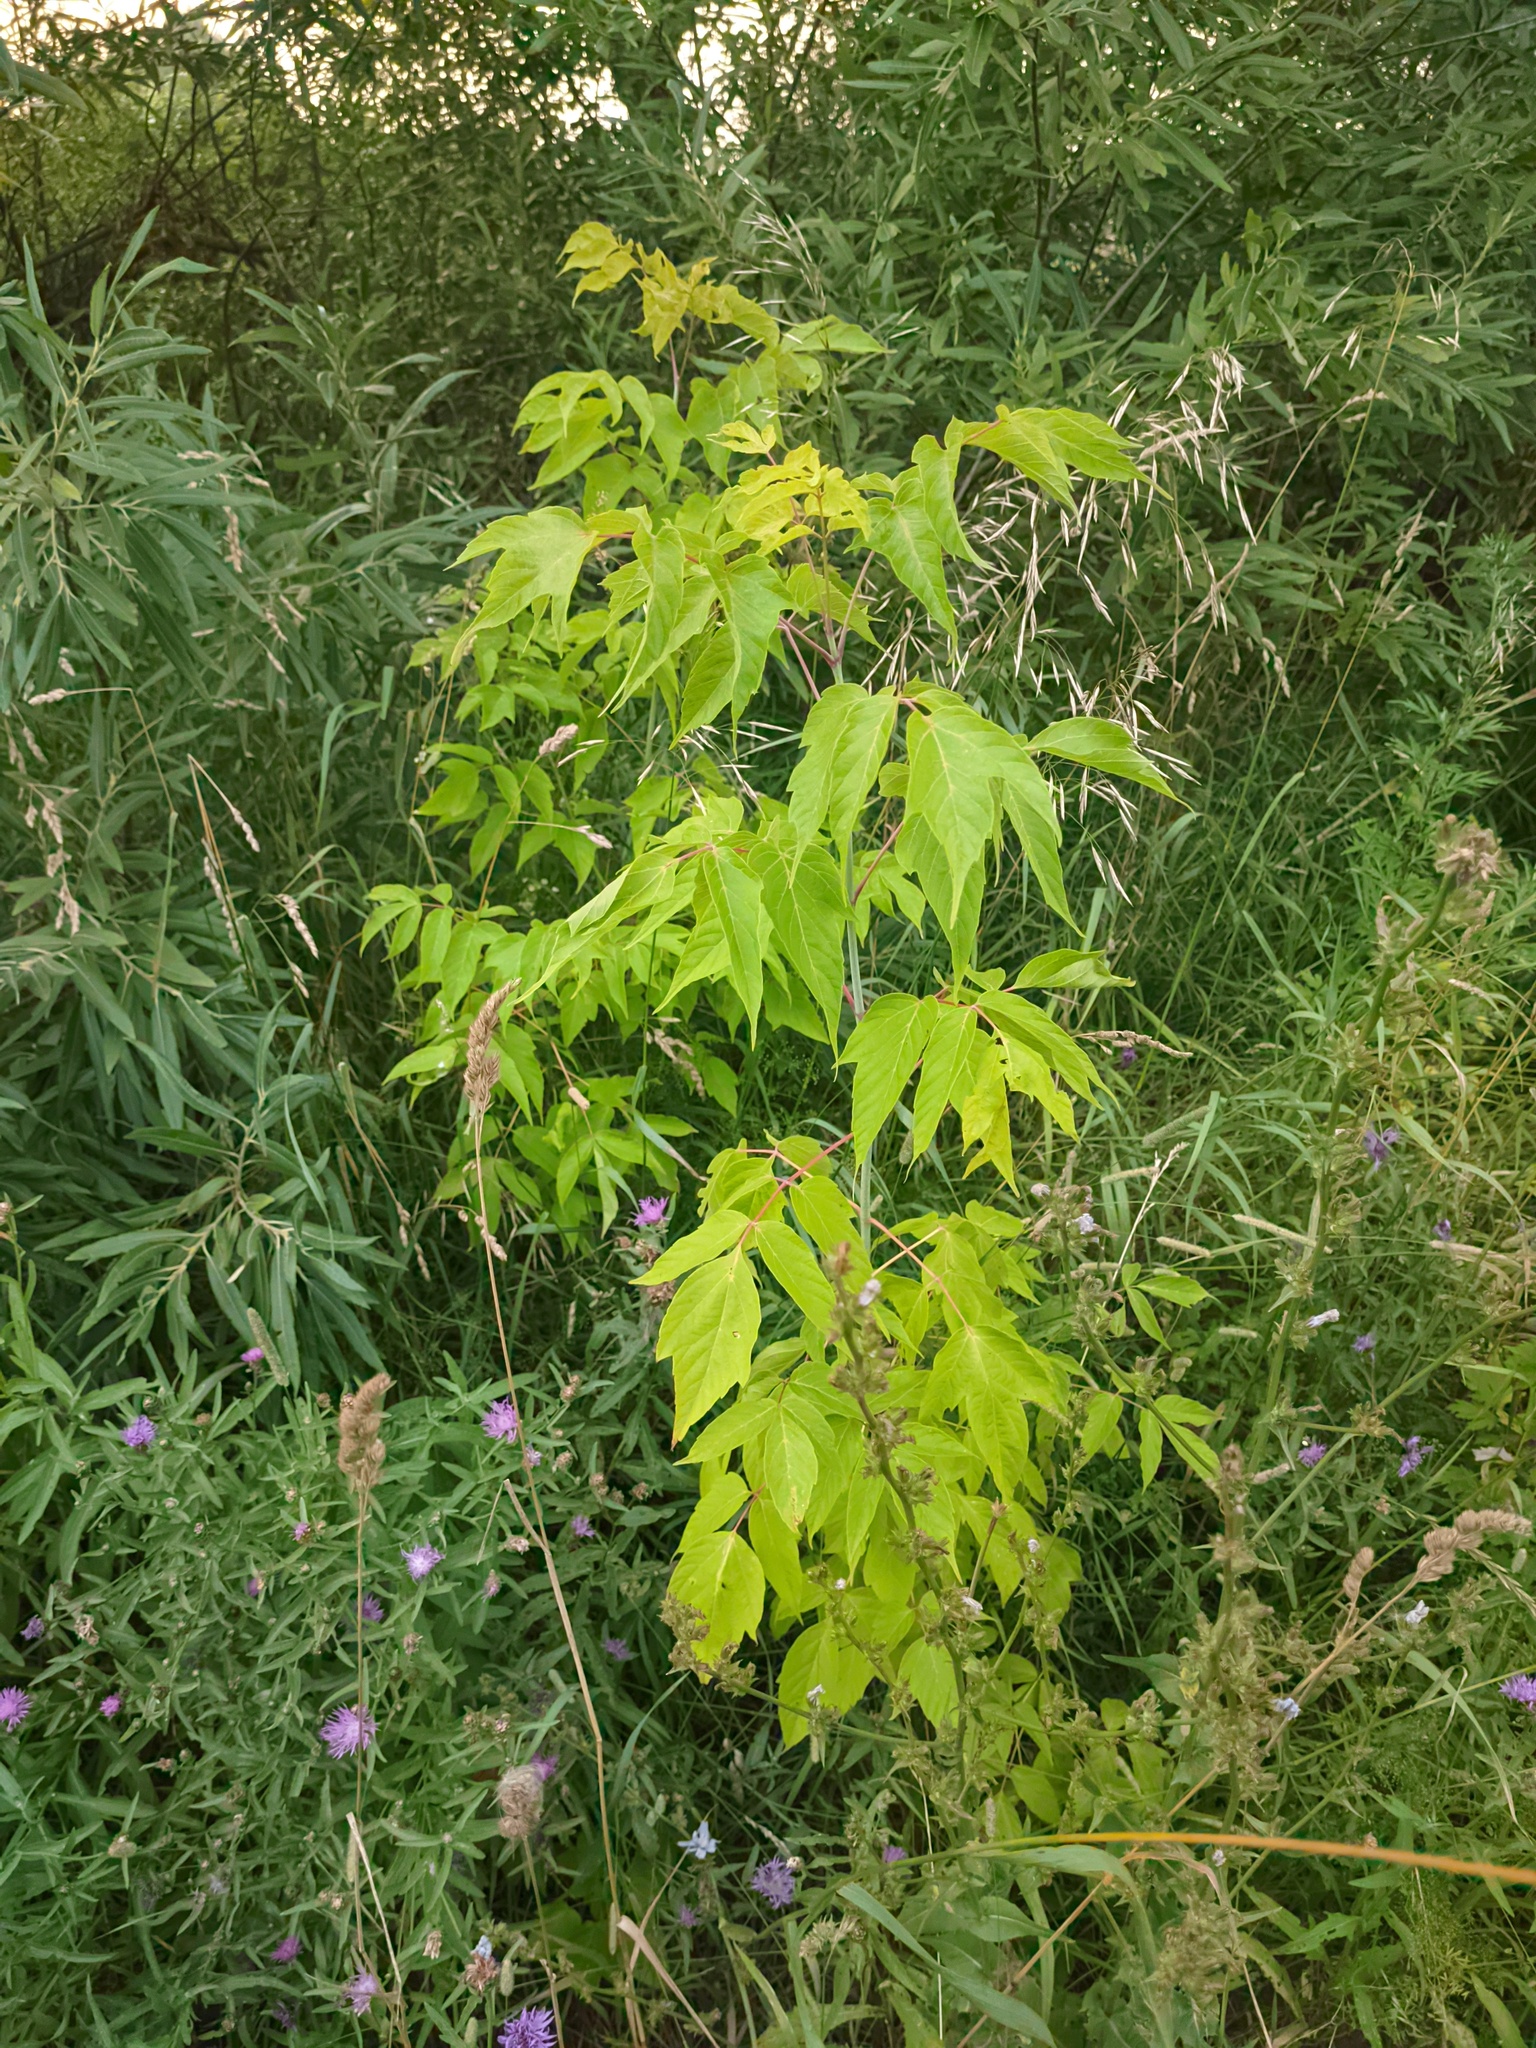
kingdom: Plantae
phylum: Tracheophyta
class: Magnoliopsida
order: Sapindales
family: Sapindaceae
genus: Acer
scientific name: Acer negundo
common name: Ashleaf maple
